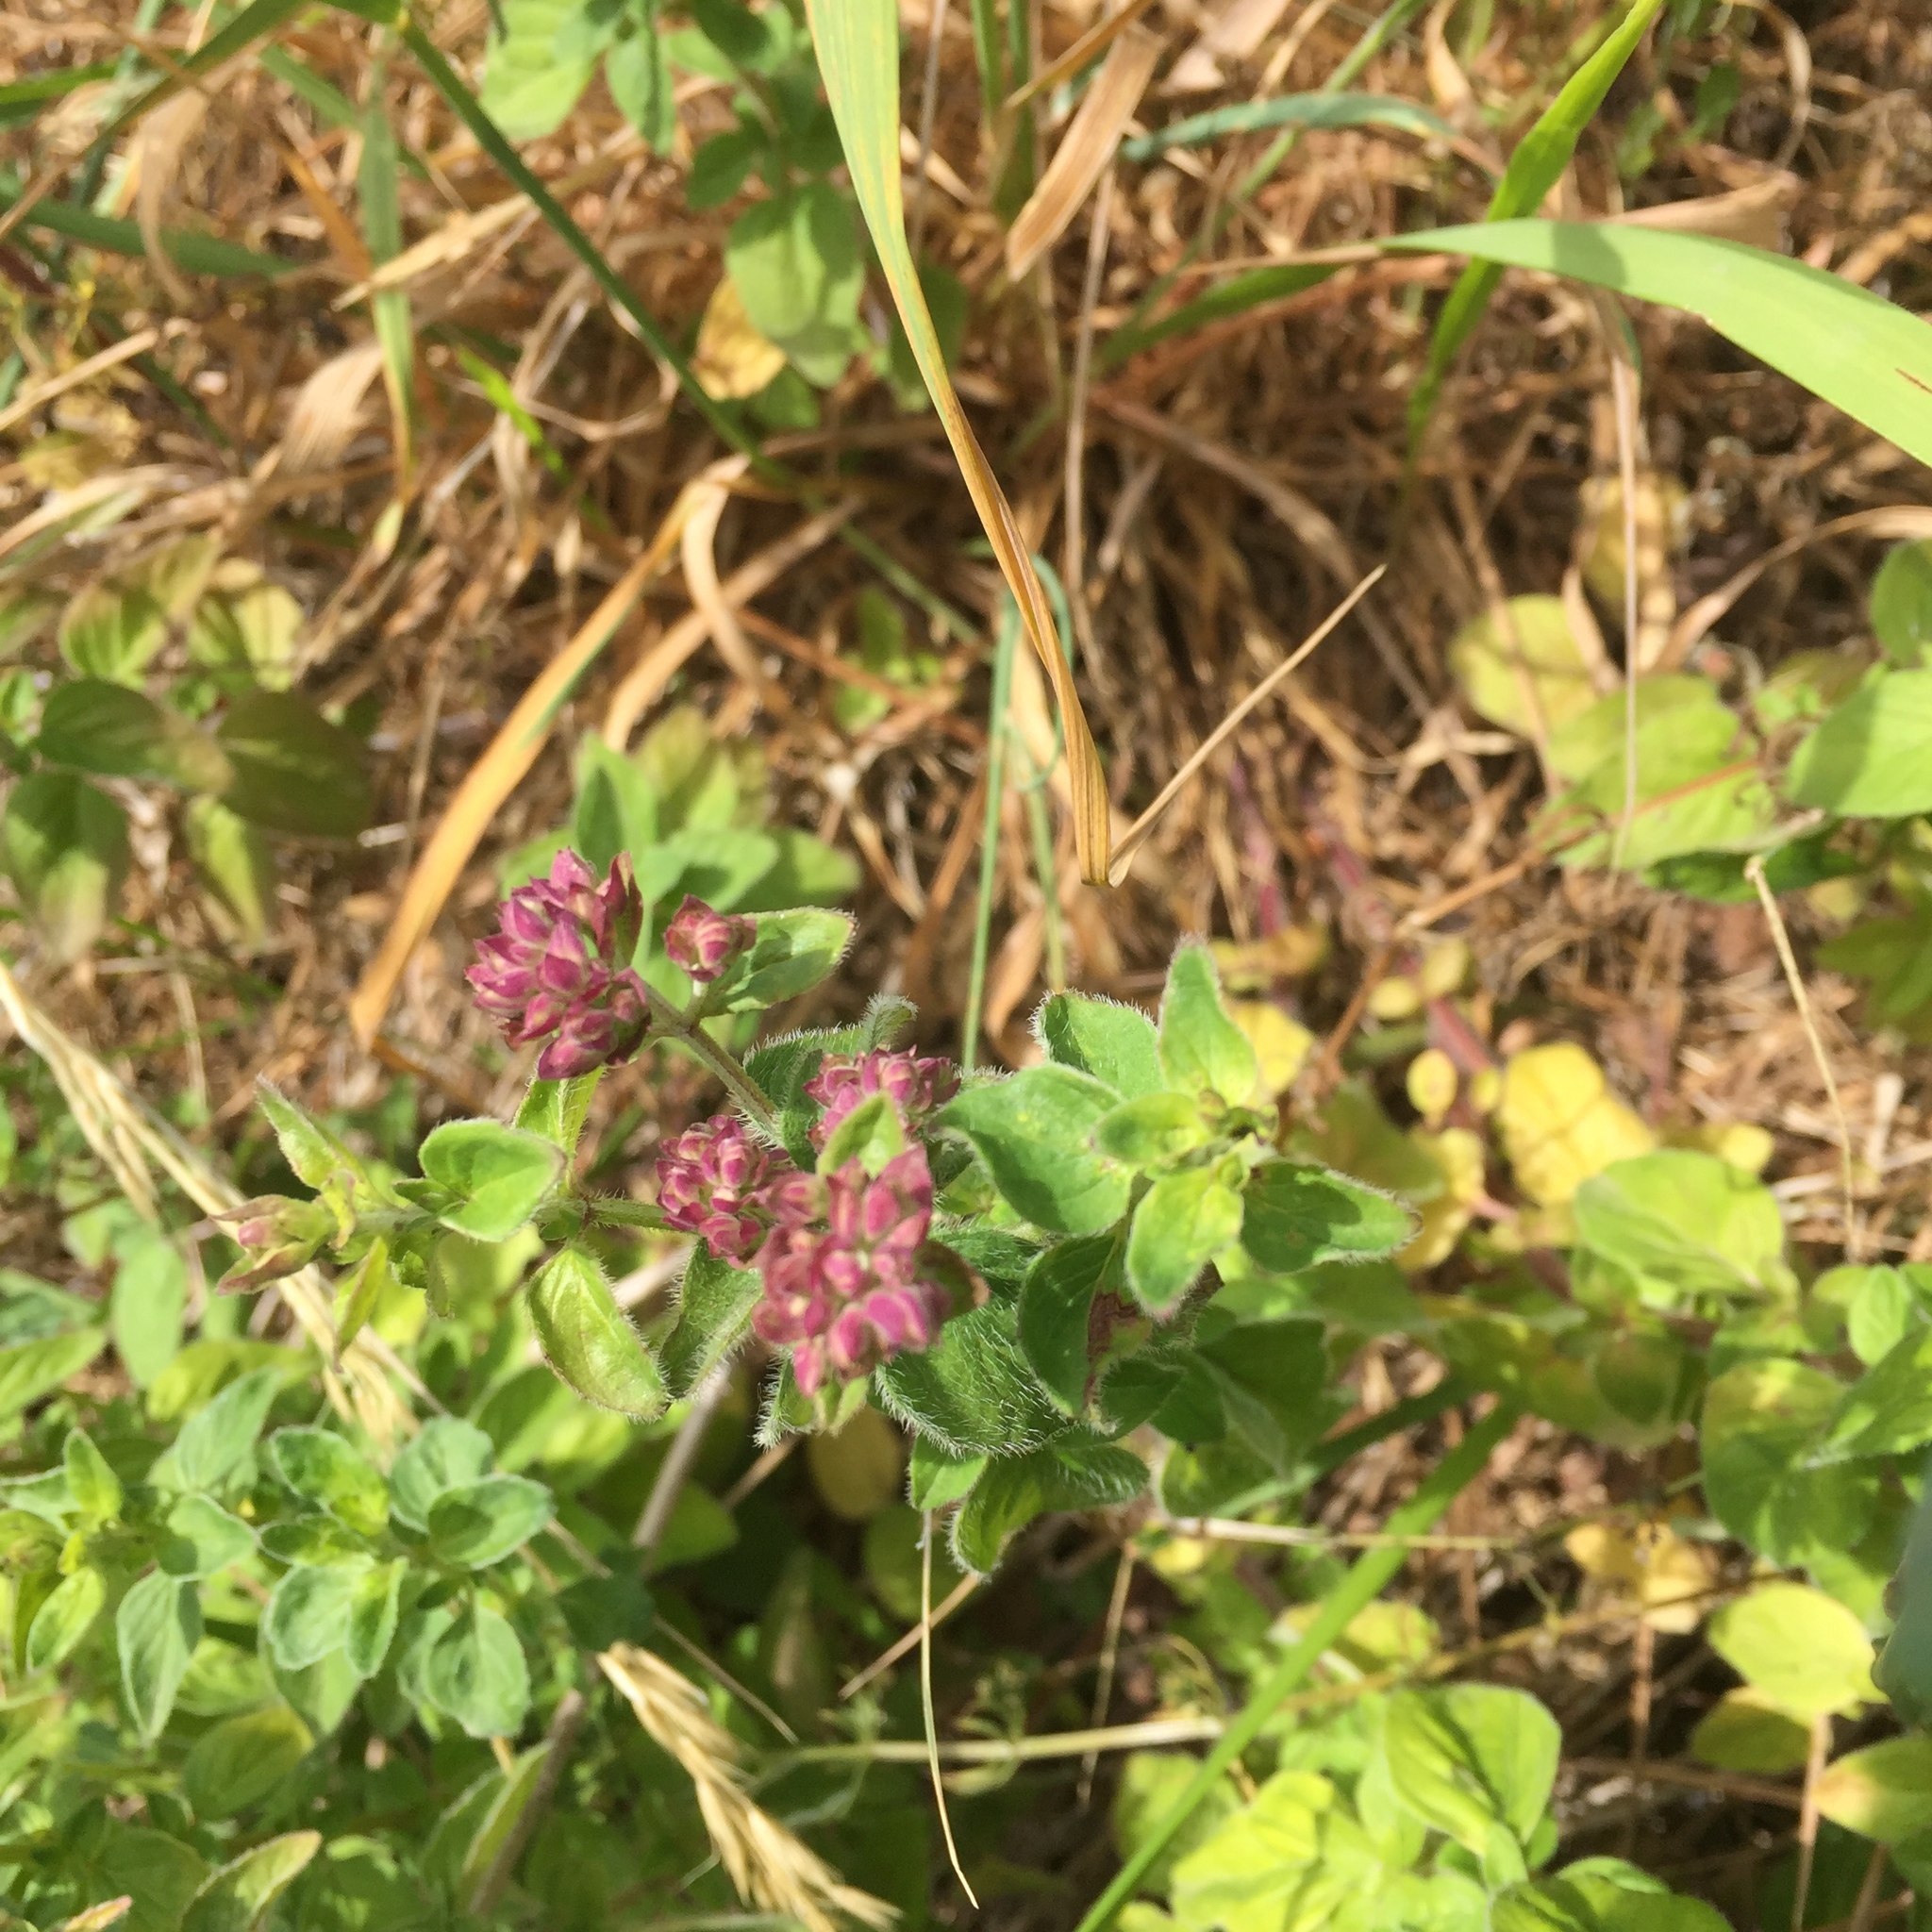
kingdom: Plantae
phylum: Tracheophyta
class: Magnoliopsida
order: Lamiales
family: Lamiaceae
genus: Origanum
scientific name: Origanum vulgare
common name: Wild marjoram
